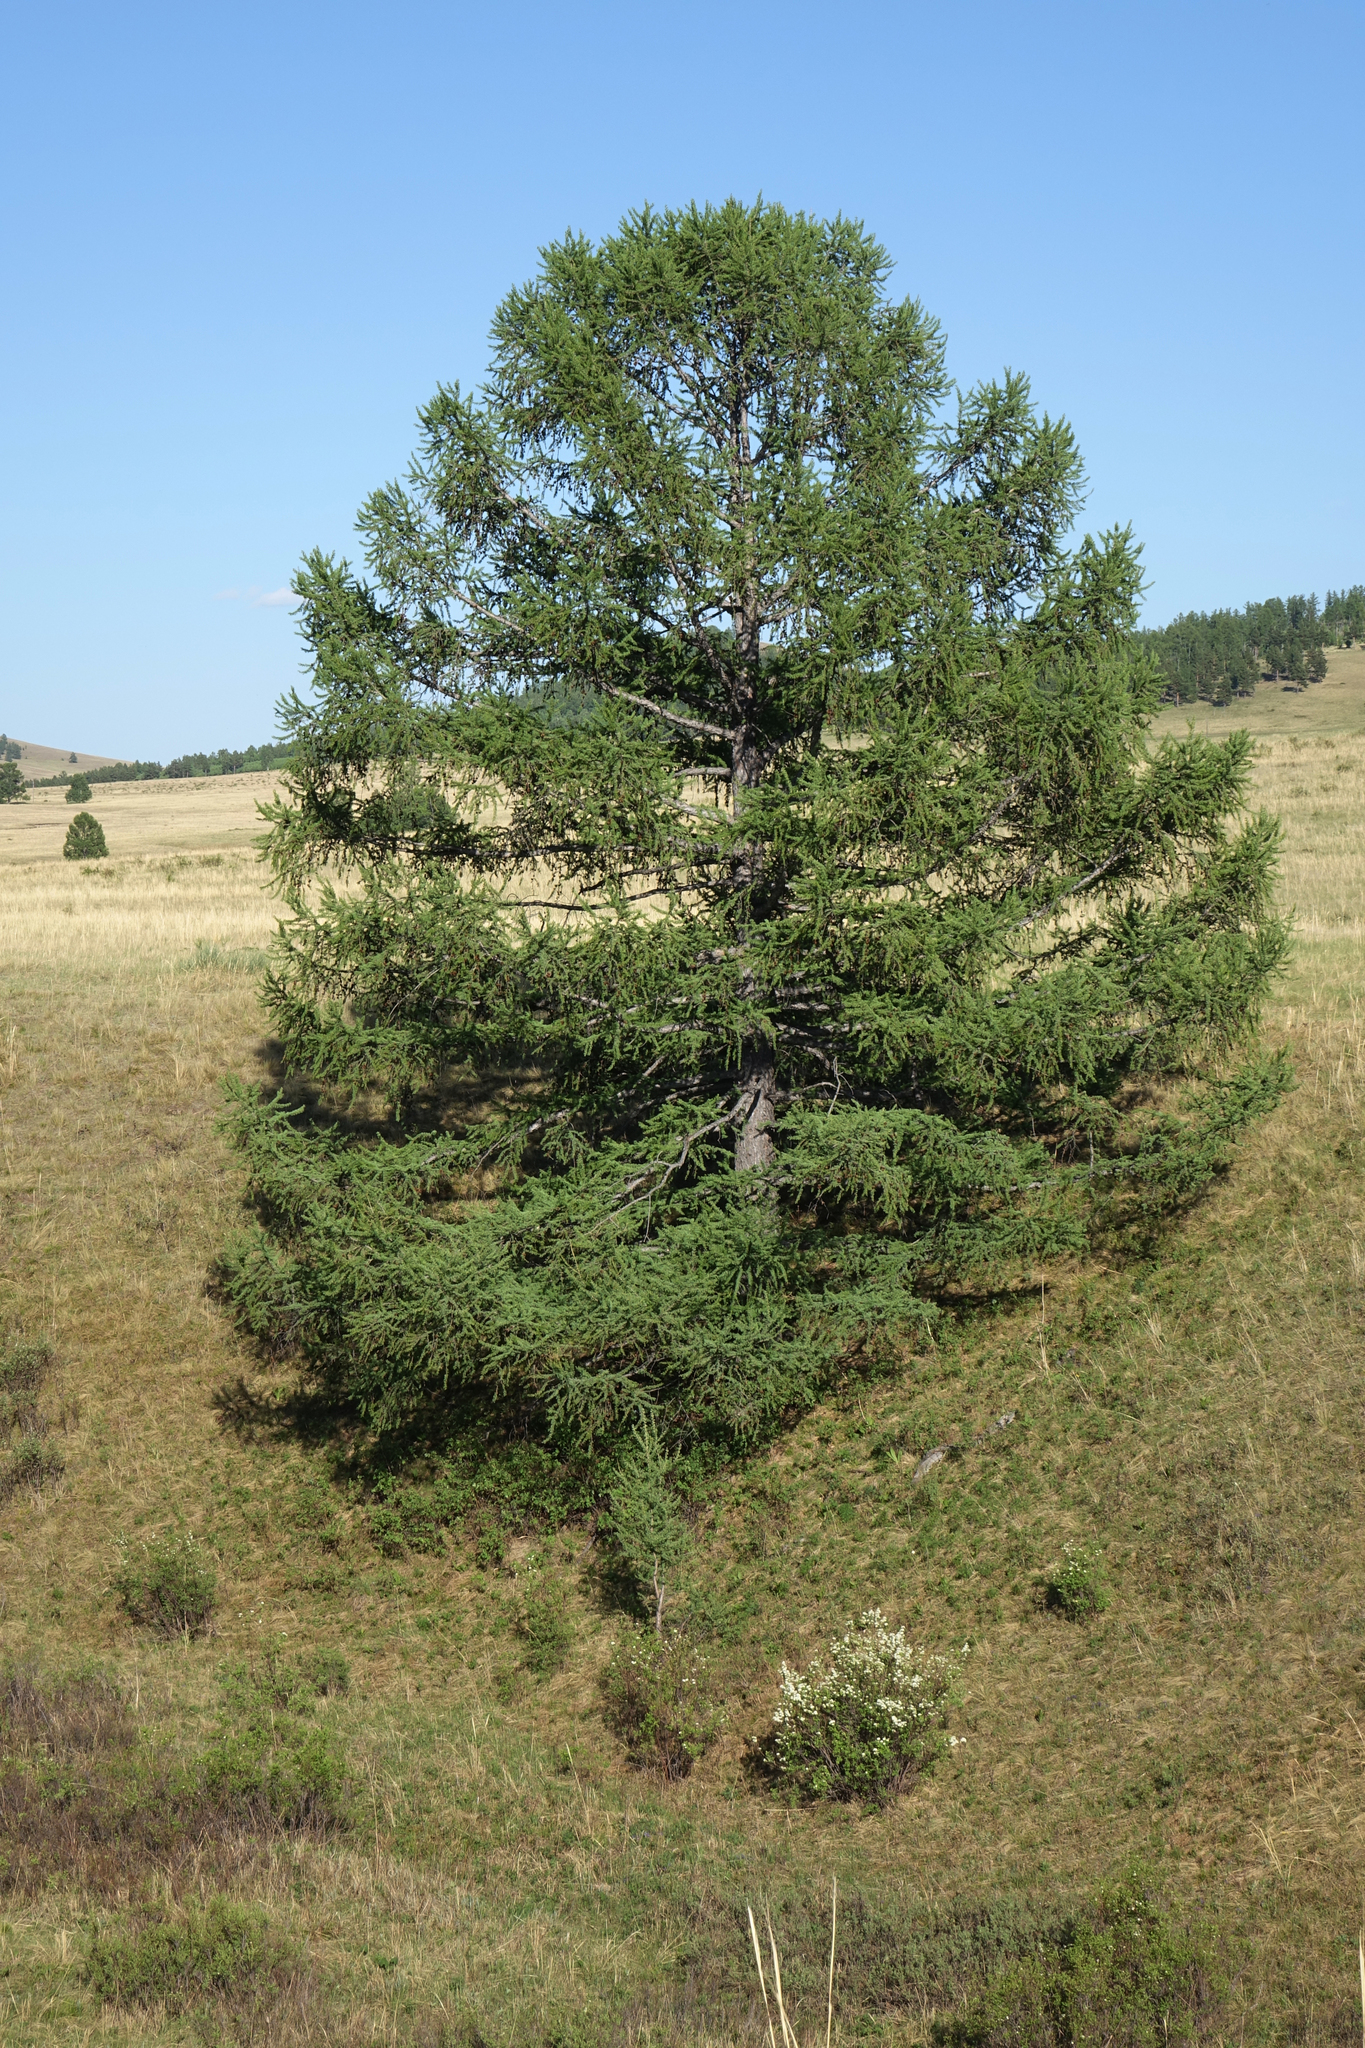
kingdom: Plantae
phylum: Tracheophyta
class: Pinopsida
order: Pinales
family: Pinaceae
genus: Larix
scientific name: Larix sibirica
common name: Siberian larch
